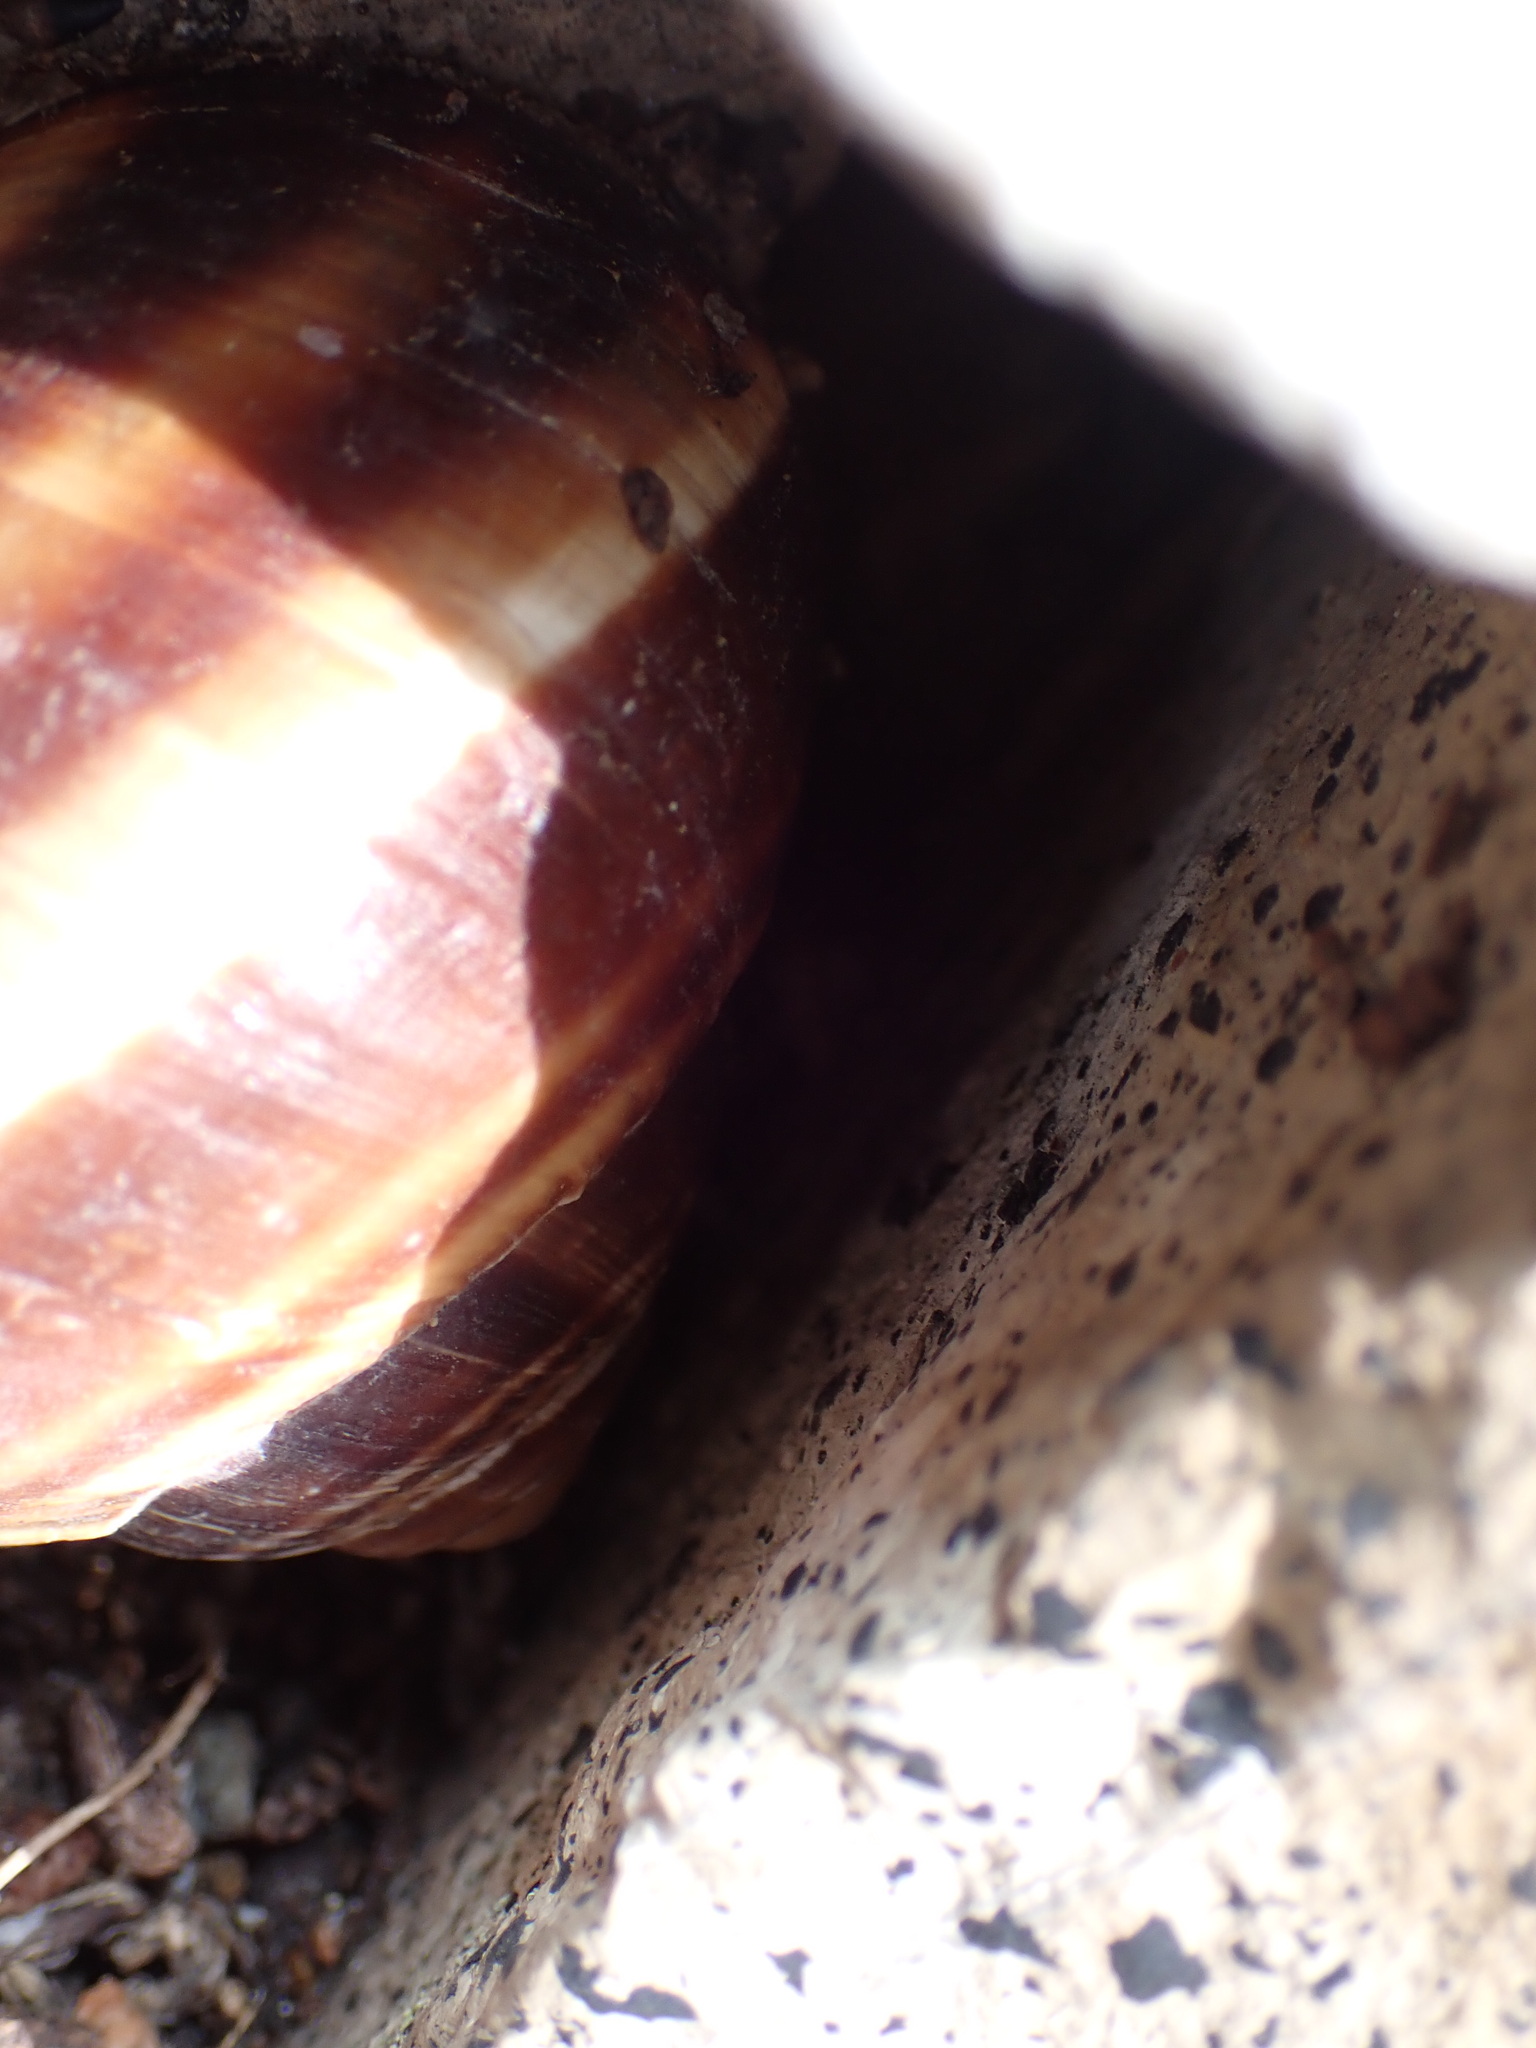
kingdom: Animalia
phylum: Mollusca
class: Gastropoda
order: Stylommatophora
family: Helicidae
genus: Helix
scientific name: Helix lucorum
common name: Turkish snail
